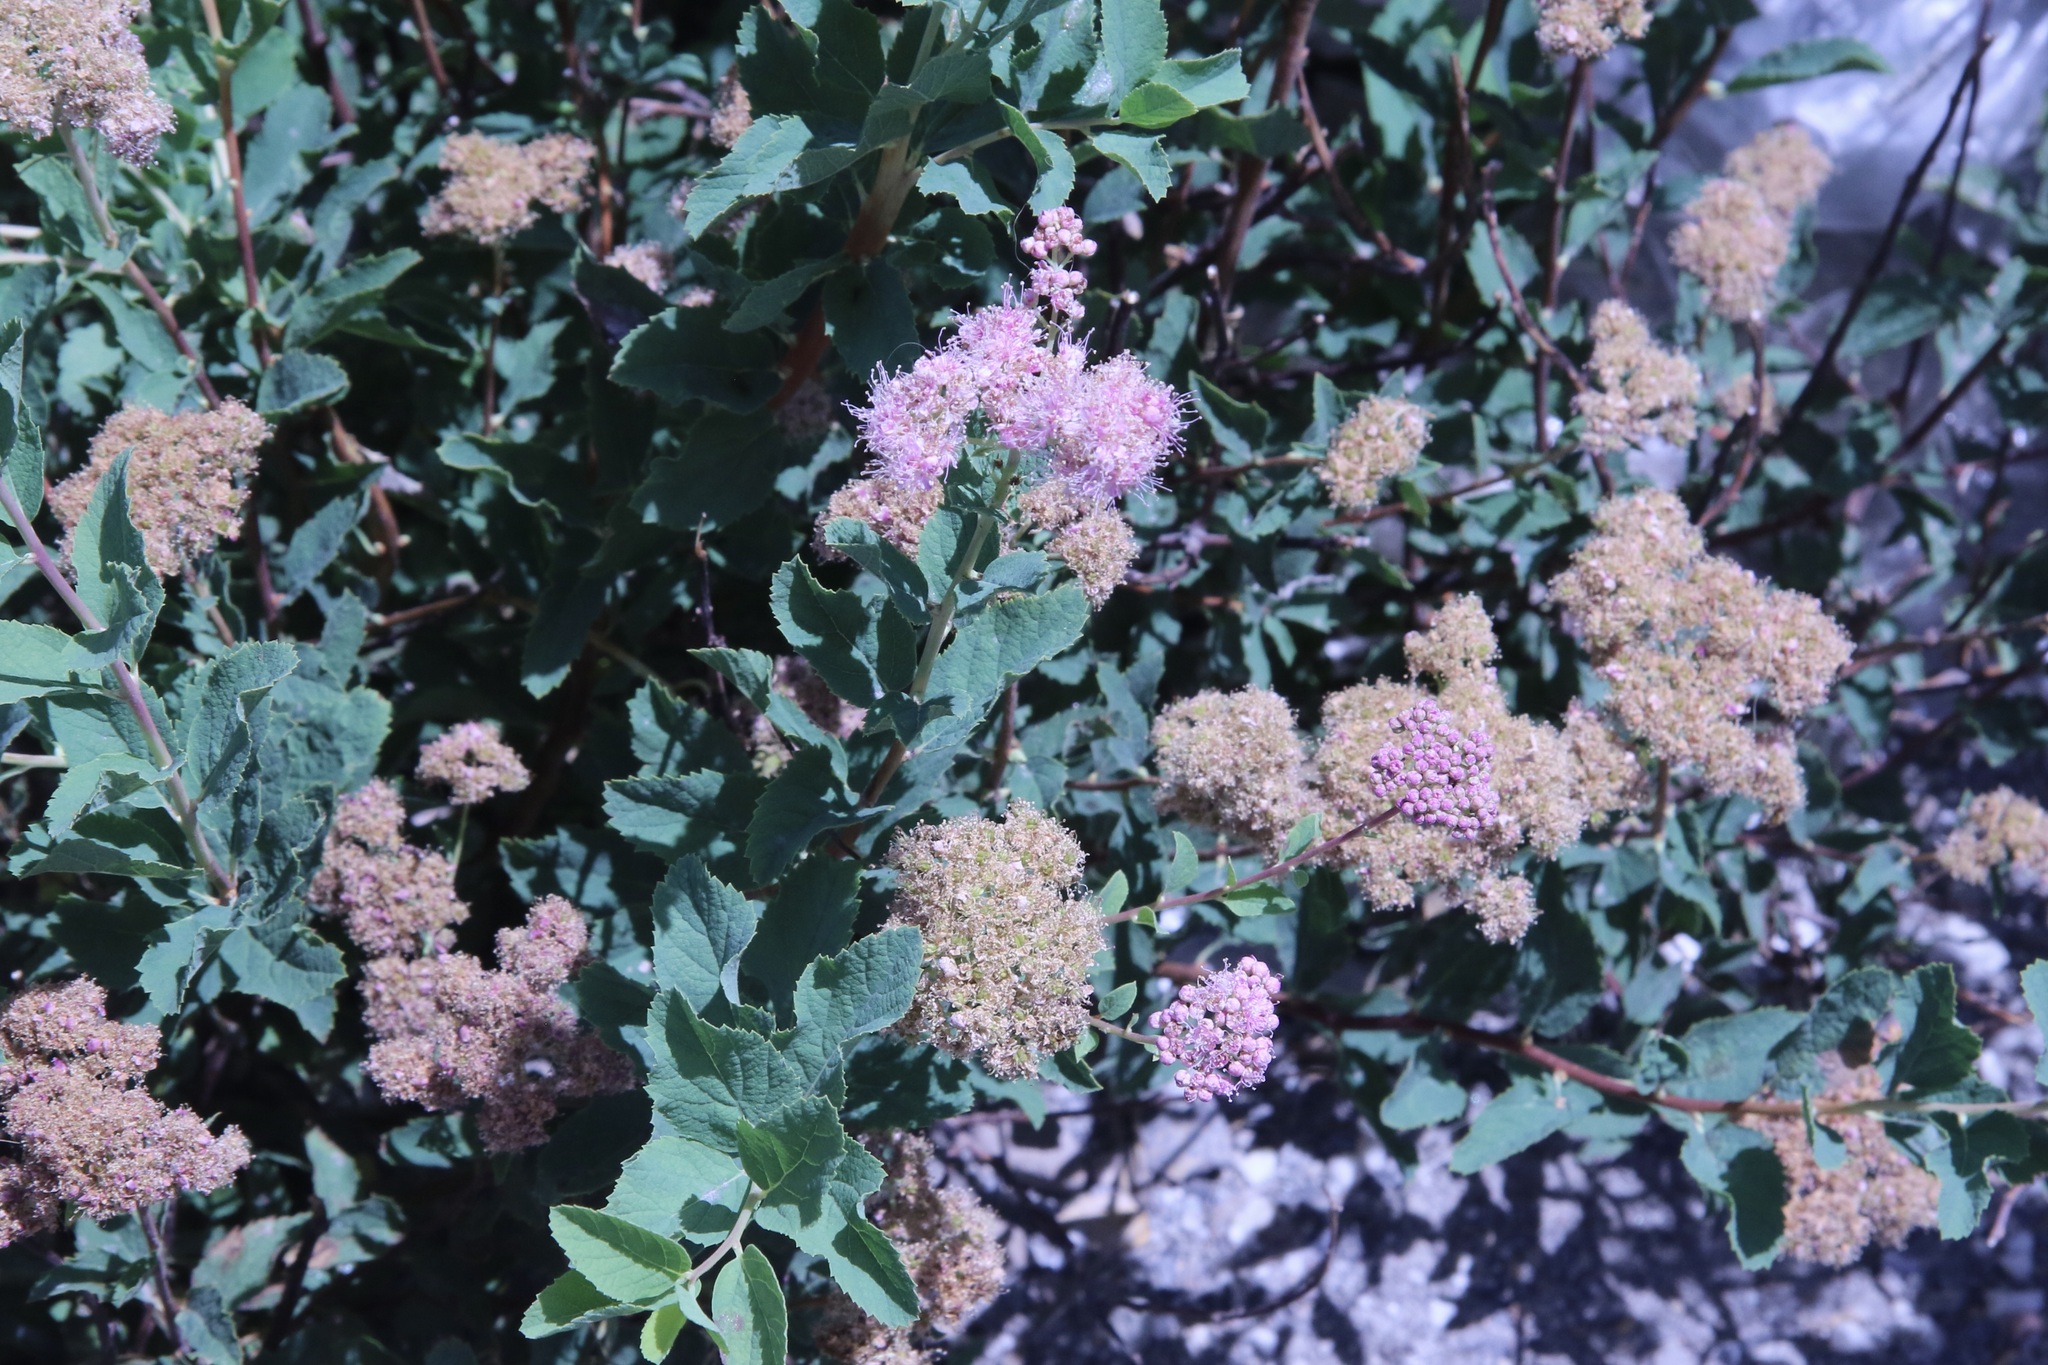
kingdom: Plantae
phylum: Tracheophyta
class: Magnoliopsida
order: Rosales
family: Rosaceae
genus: Spiraea
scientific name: Spiraea splendens
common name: Subalpine meadowsweet
